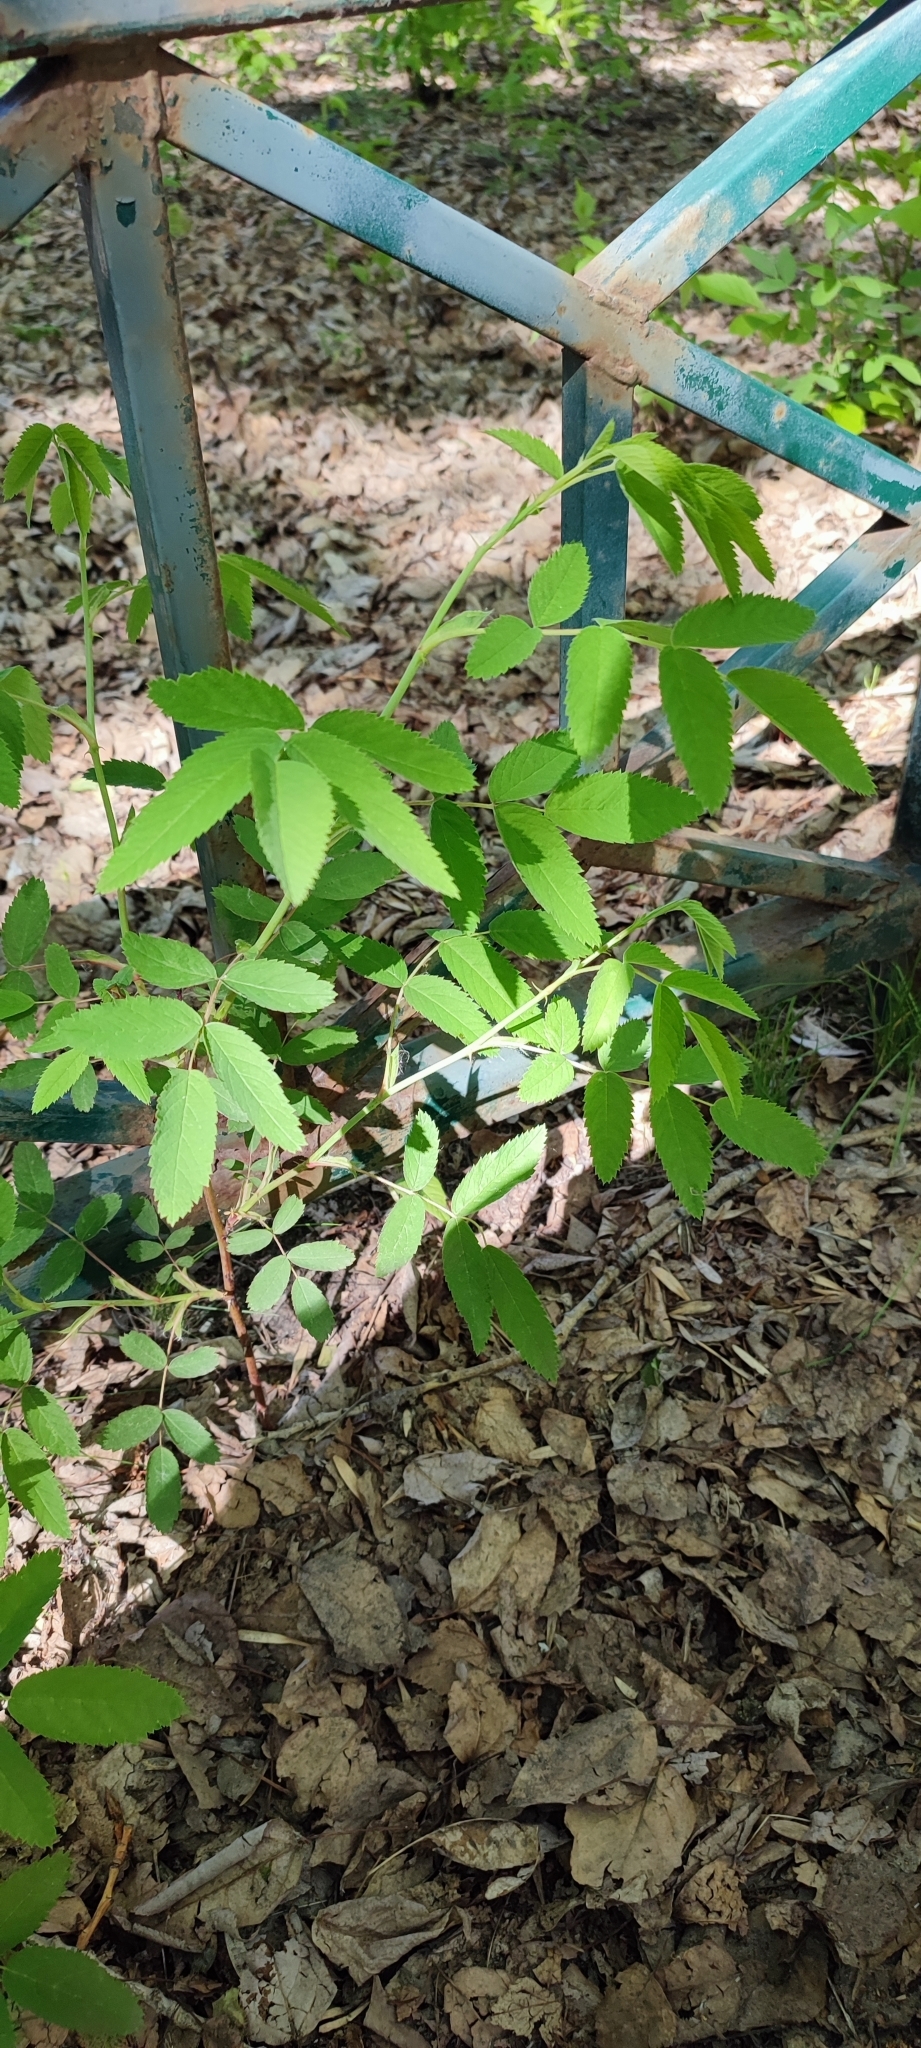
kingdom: Plantae
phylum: Tracheophyta
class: Magnoliopsida
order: Rosales
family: Rosaceae
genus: Rosa
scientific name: Rosa majalis
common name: Cinnamon rose
